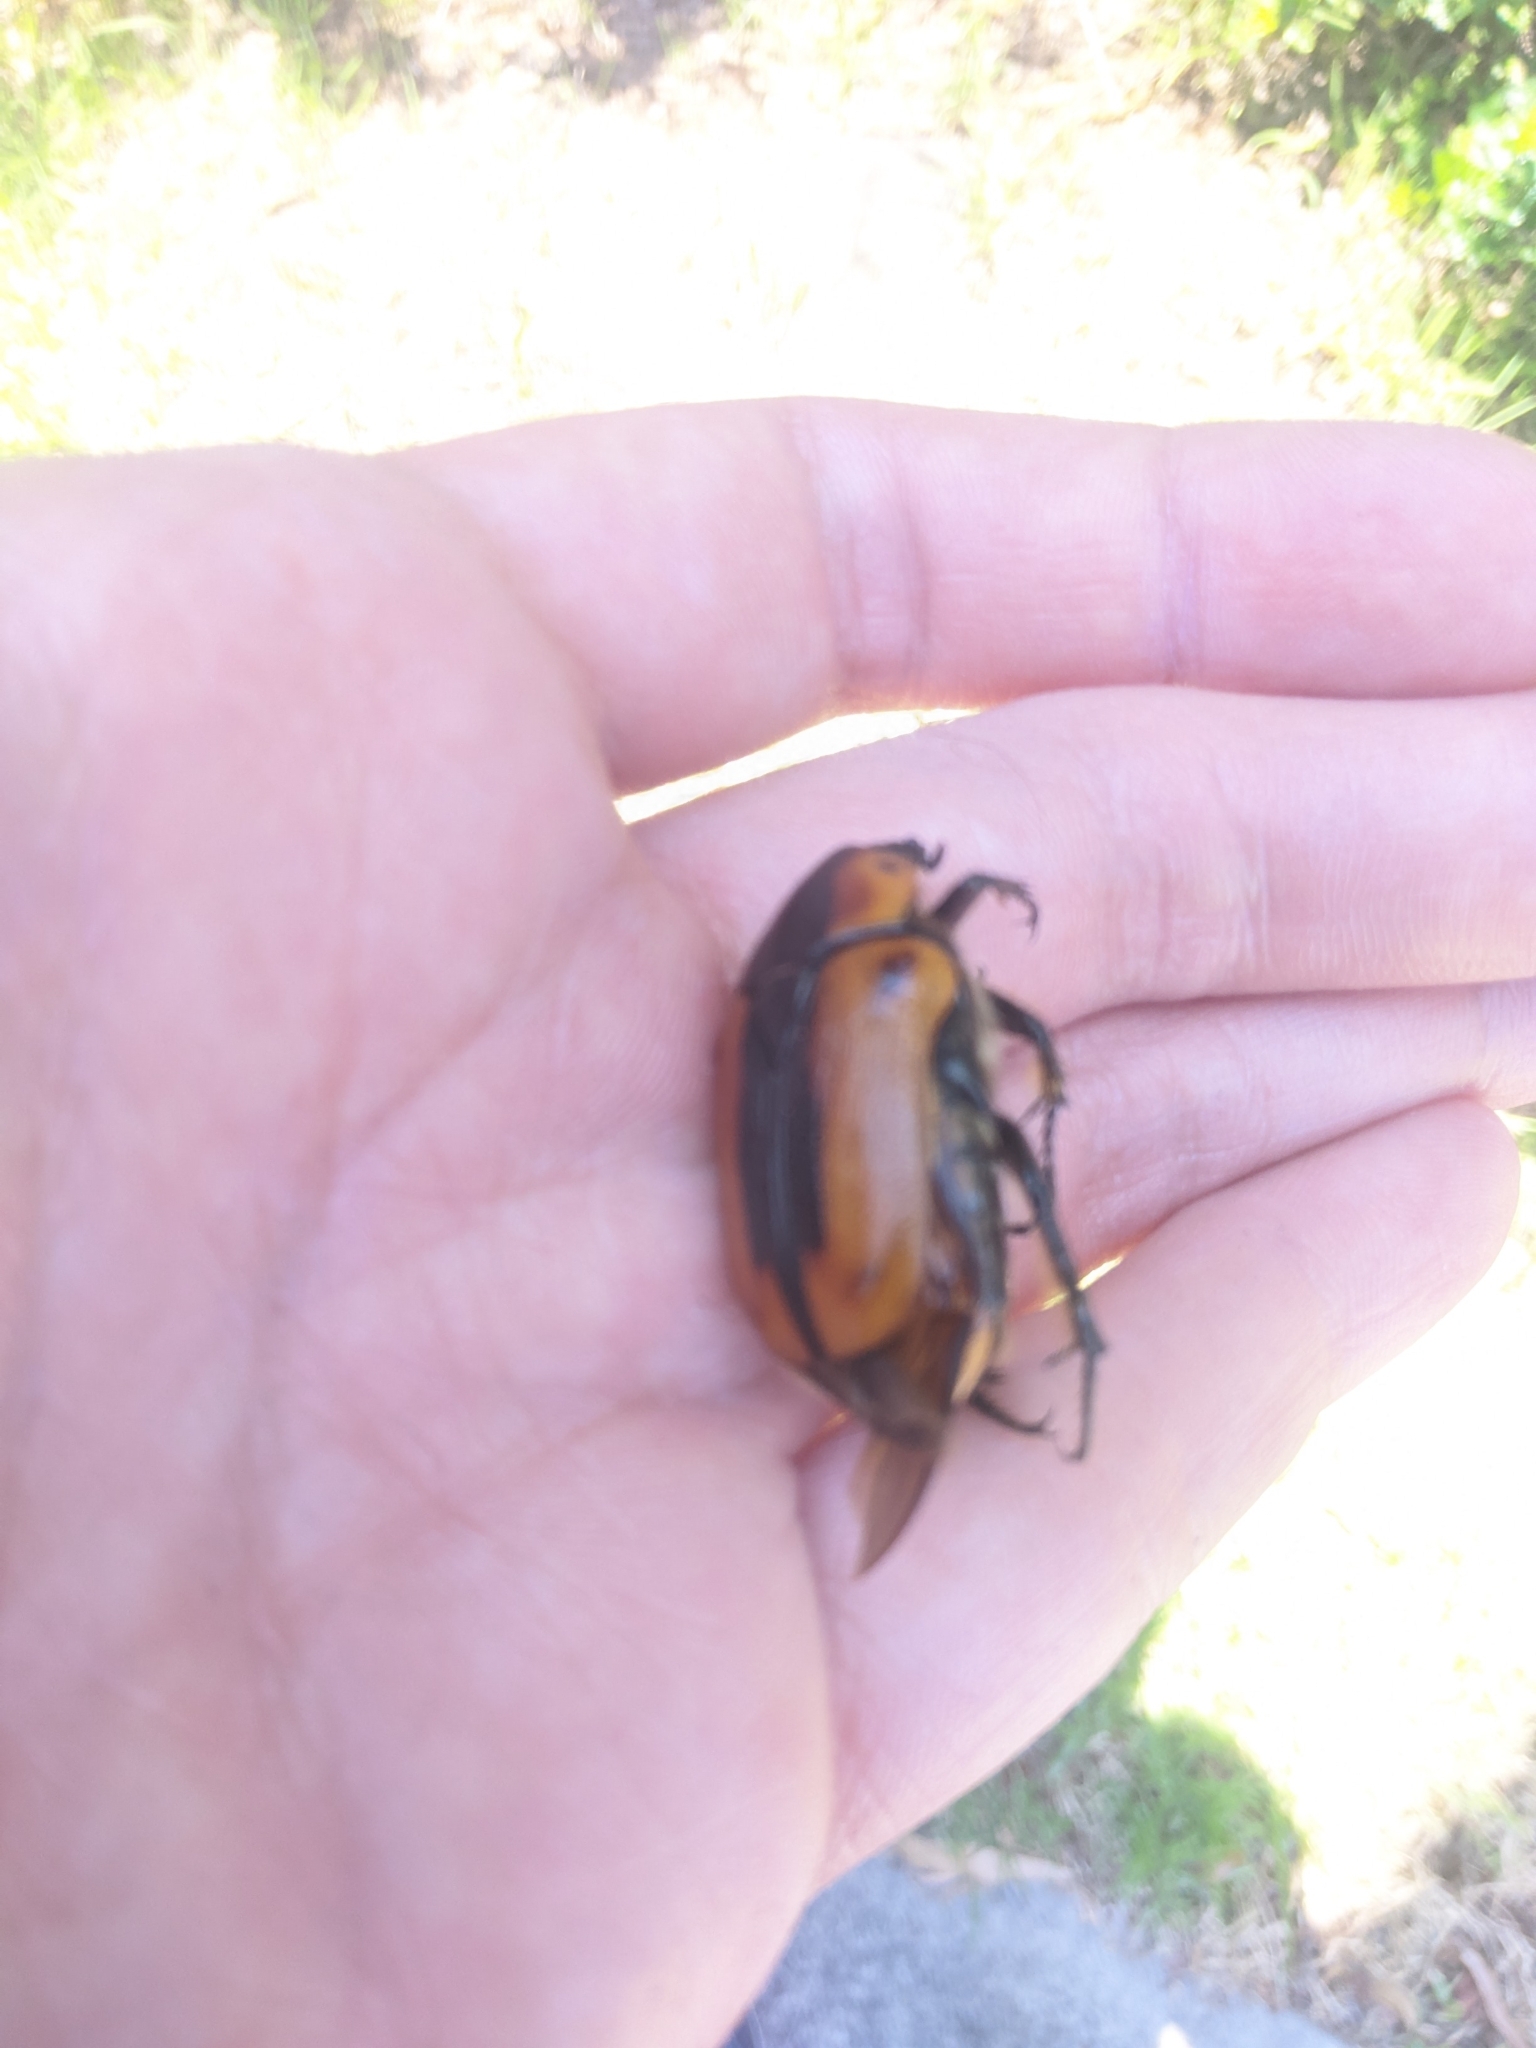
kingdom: Animalia
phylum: Arthropoda
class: Insecta
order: Coleoptera
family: Scarabaeidae
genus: Chondropyga
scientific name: Chondropyga dorsalis
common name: Cowboy beetle
